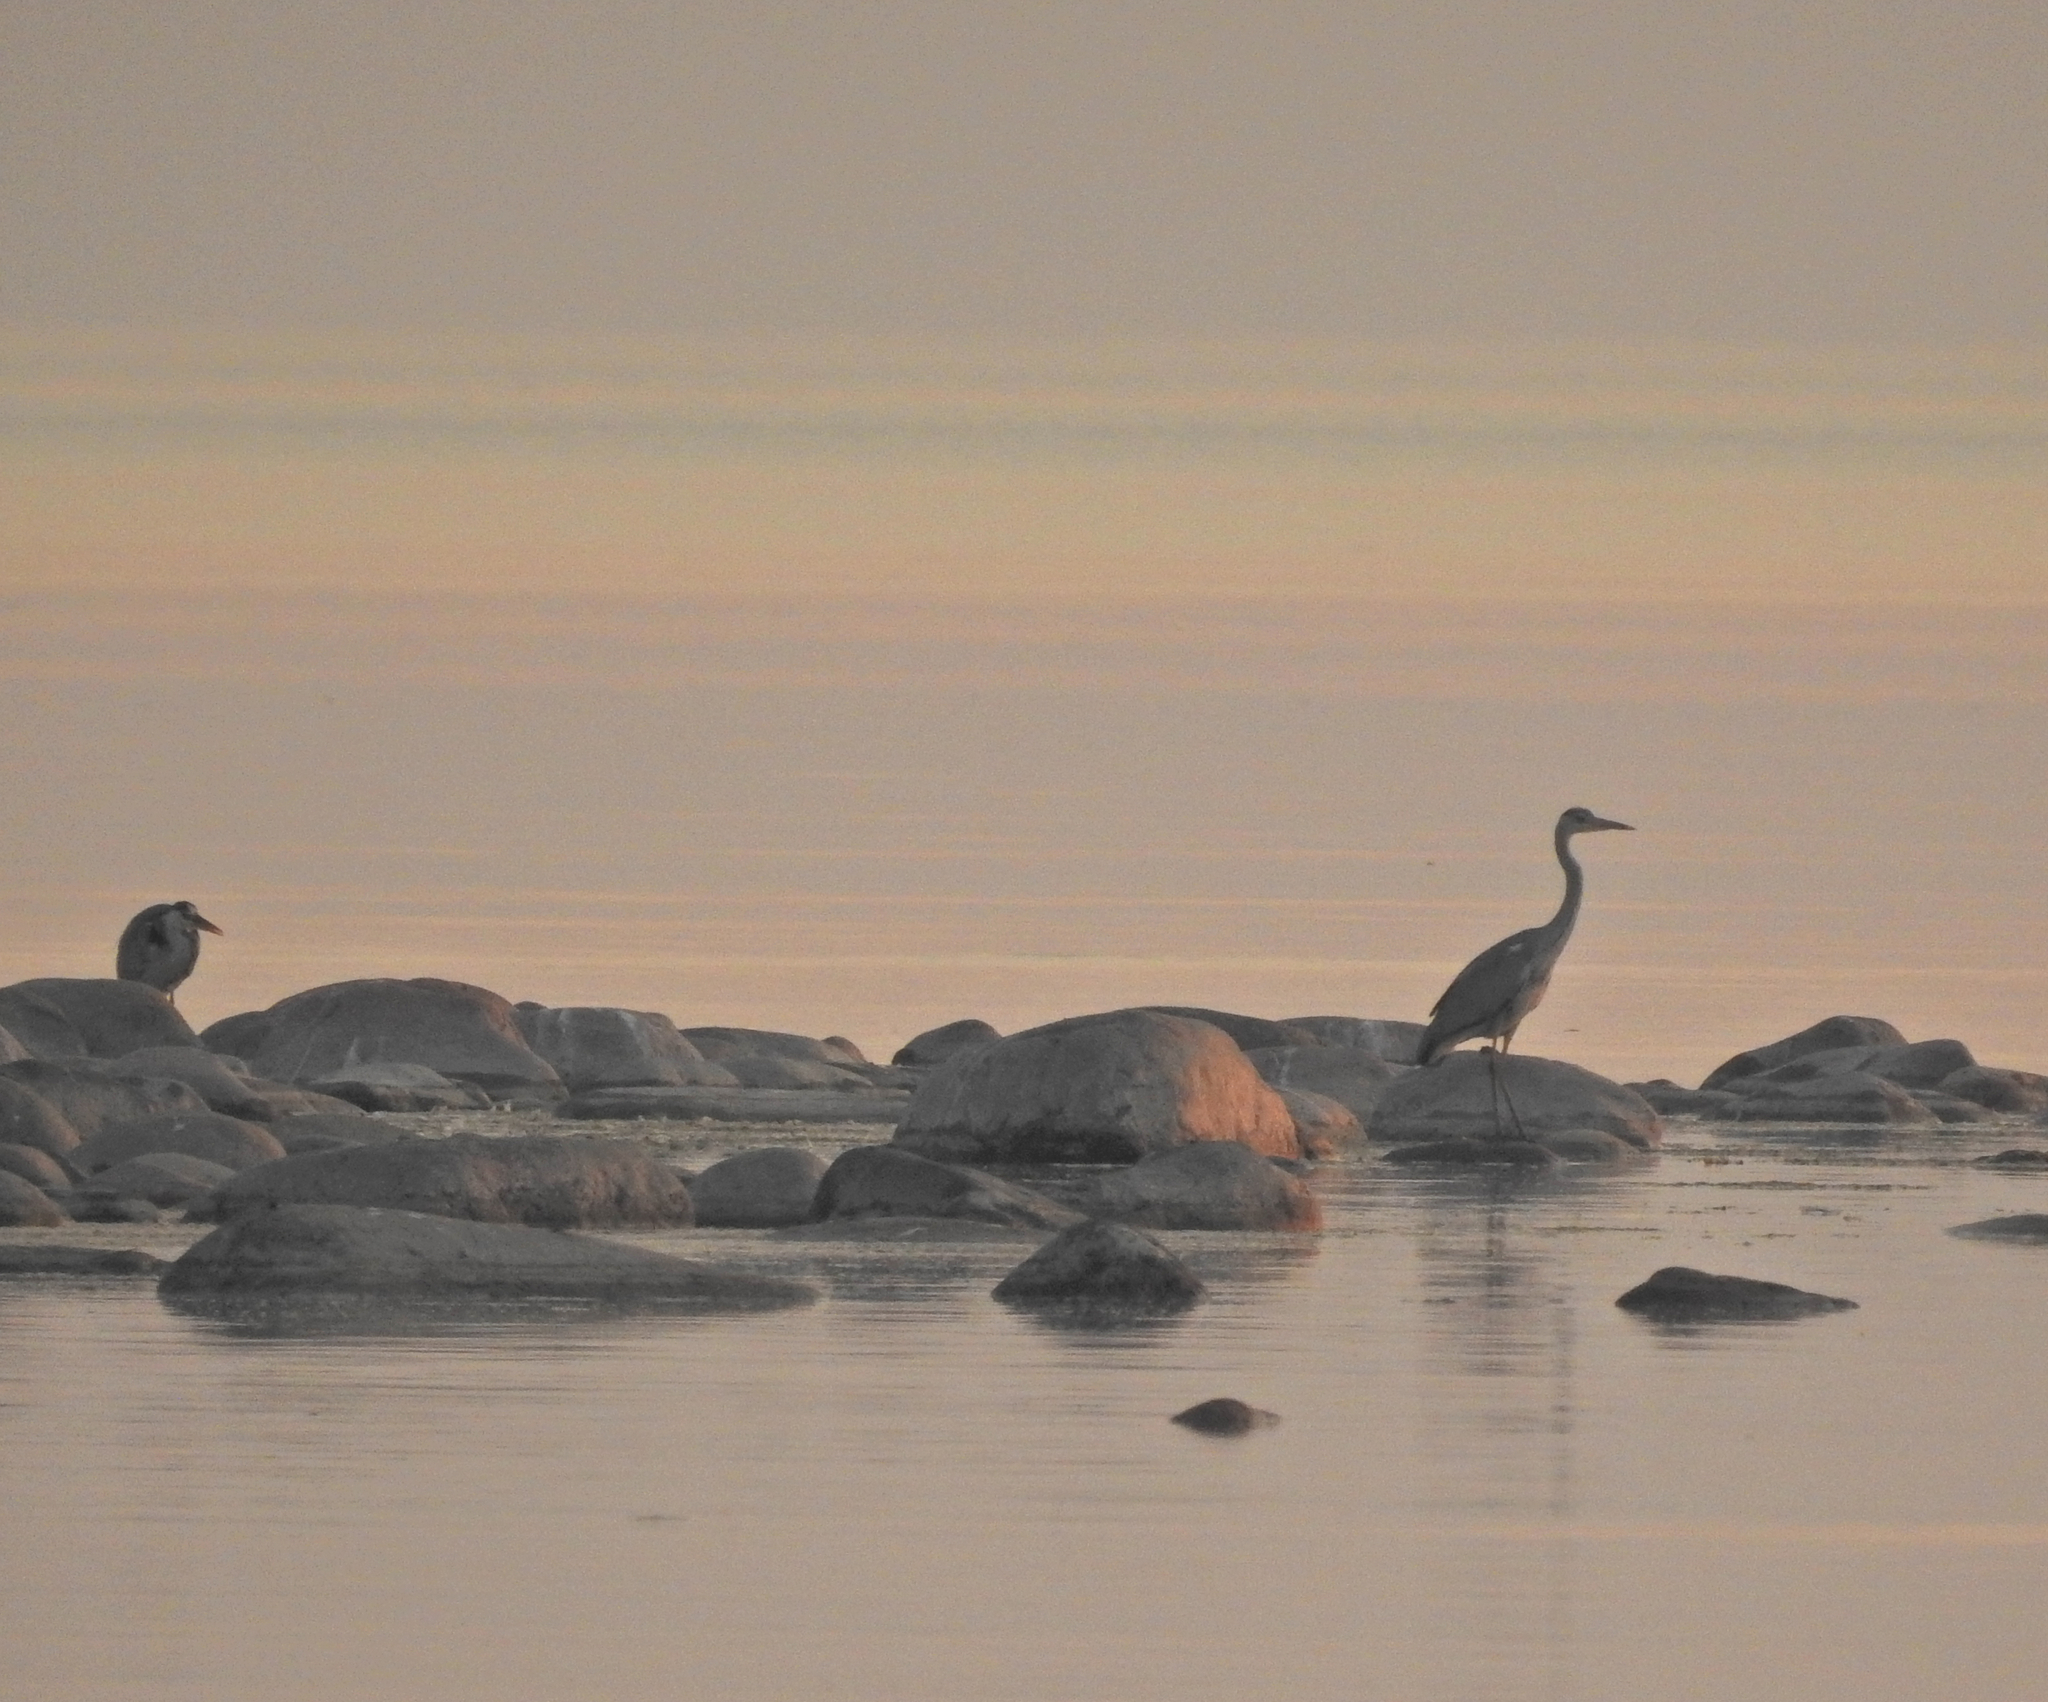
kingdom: Animalia
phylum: Chordata
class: Aves
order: Pelecaniformes
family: Ardeidae
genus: Ardea
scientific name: Ardea cinerea
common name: Grey heron
